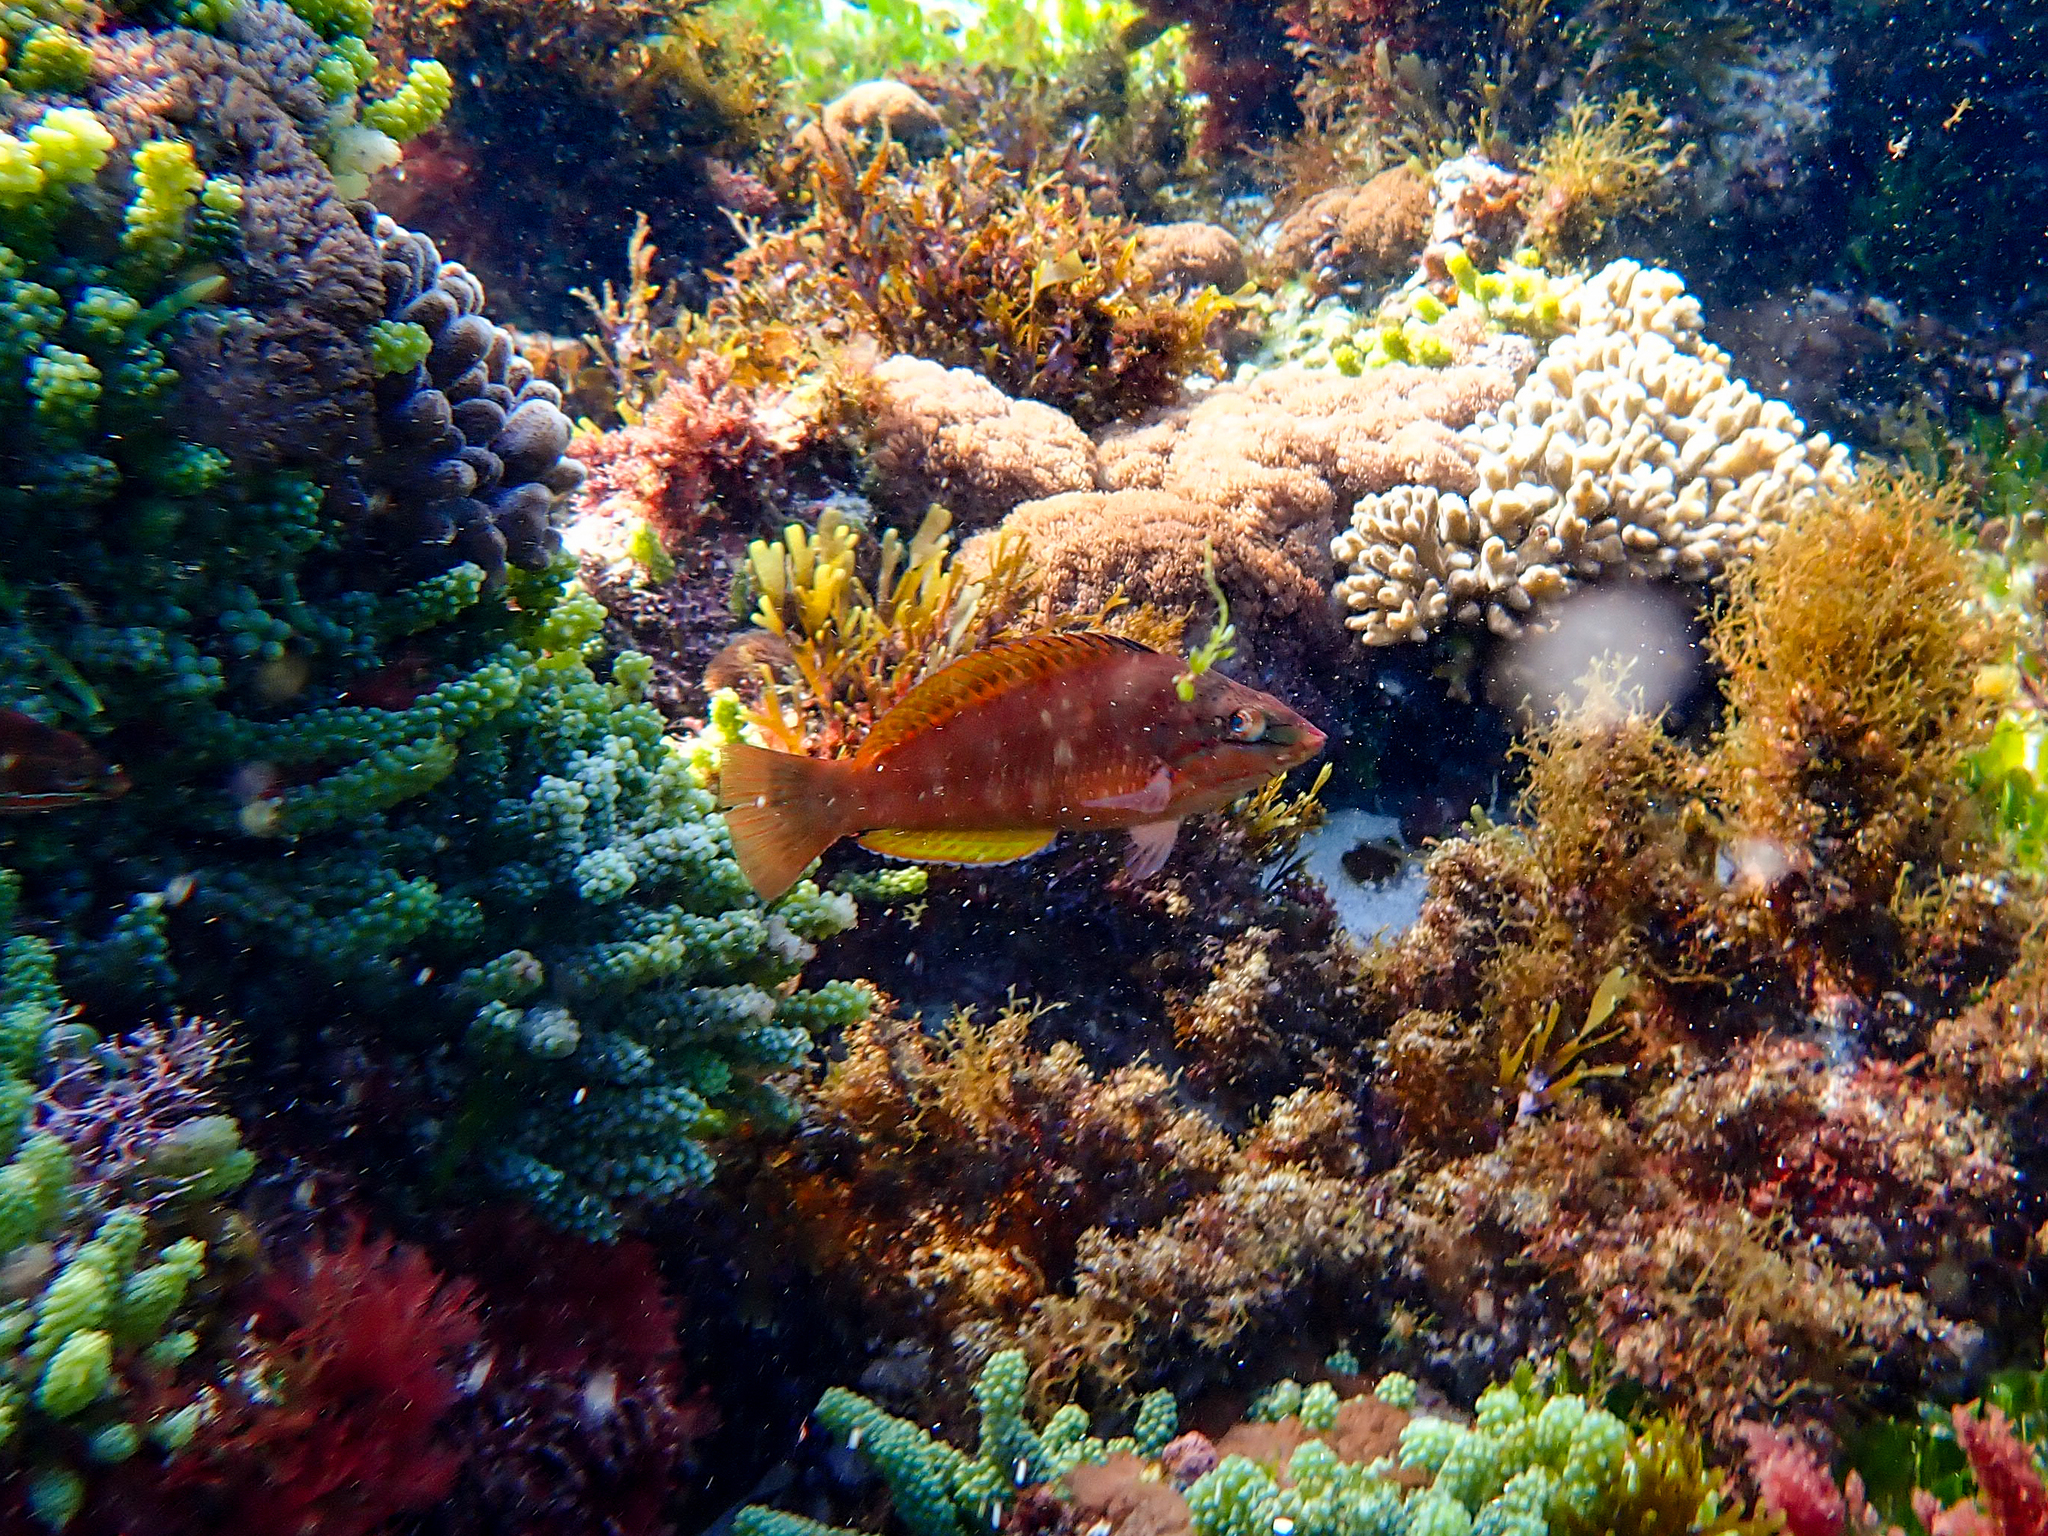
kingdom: Animalia
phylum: Chordata
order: Perciformes
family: Labridae
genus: Pseudolabrus
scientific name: Pseudolabrus luculentus
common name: Luculentus wrasse
